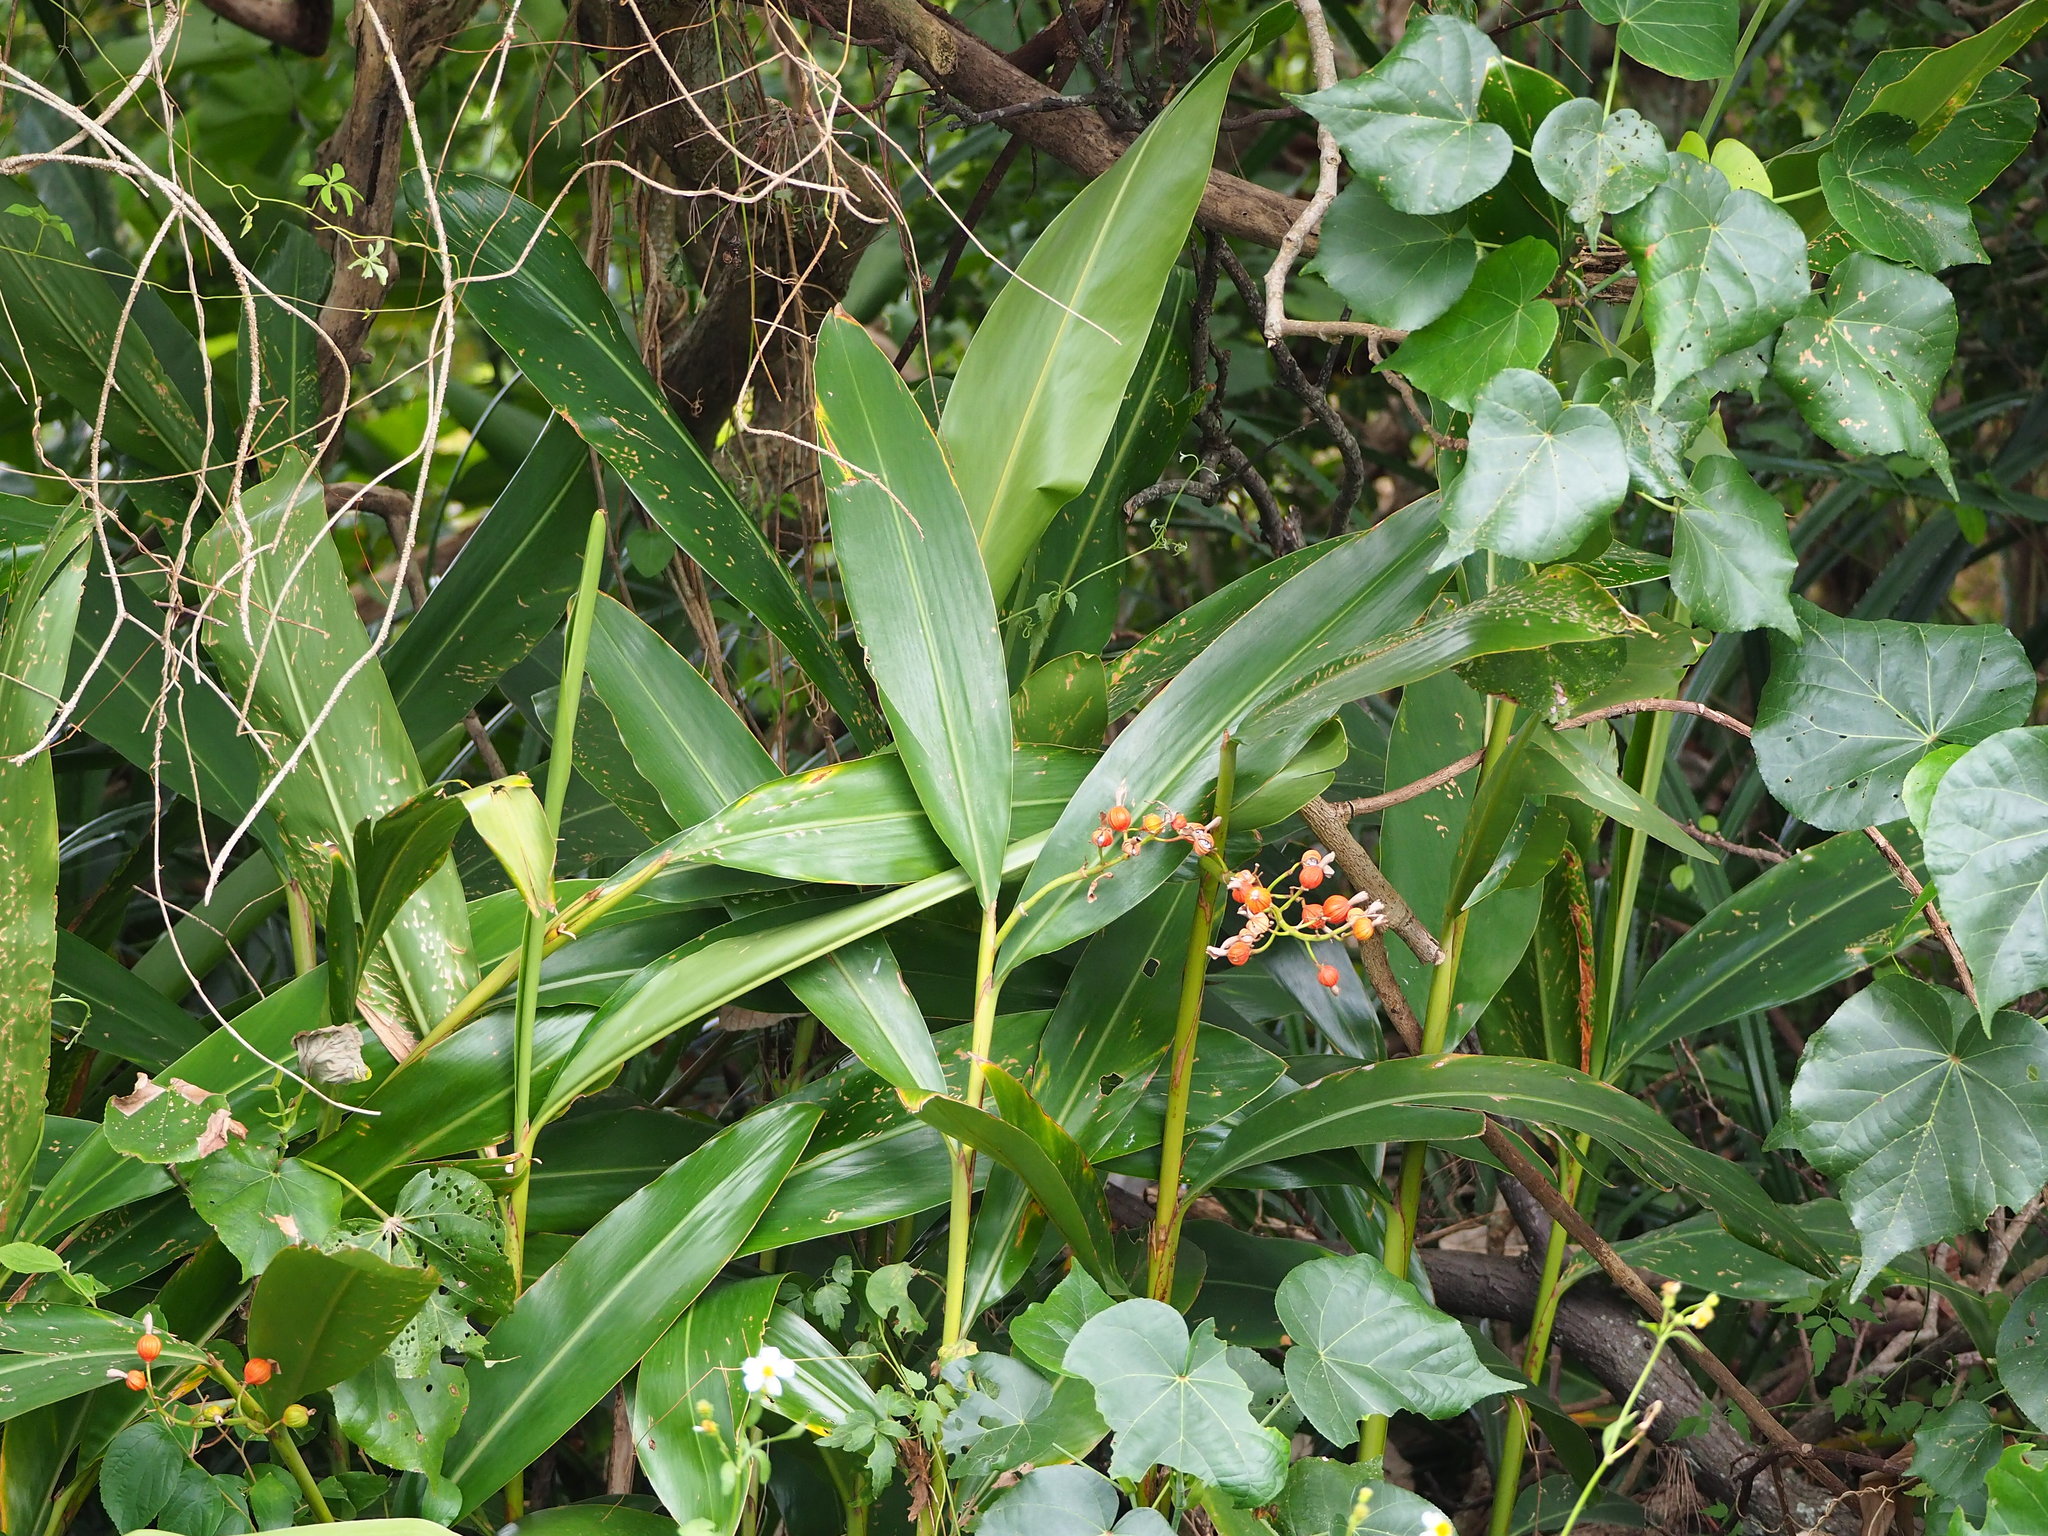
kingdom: Plantae
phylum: Tracheophyta
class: Liliopsida
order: Zingiberales
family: Zingiberaceae
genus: Alpinia
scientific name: Alpinia zerumbet
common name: Shellplant
